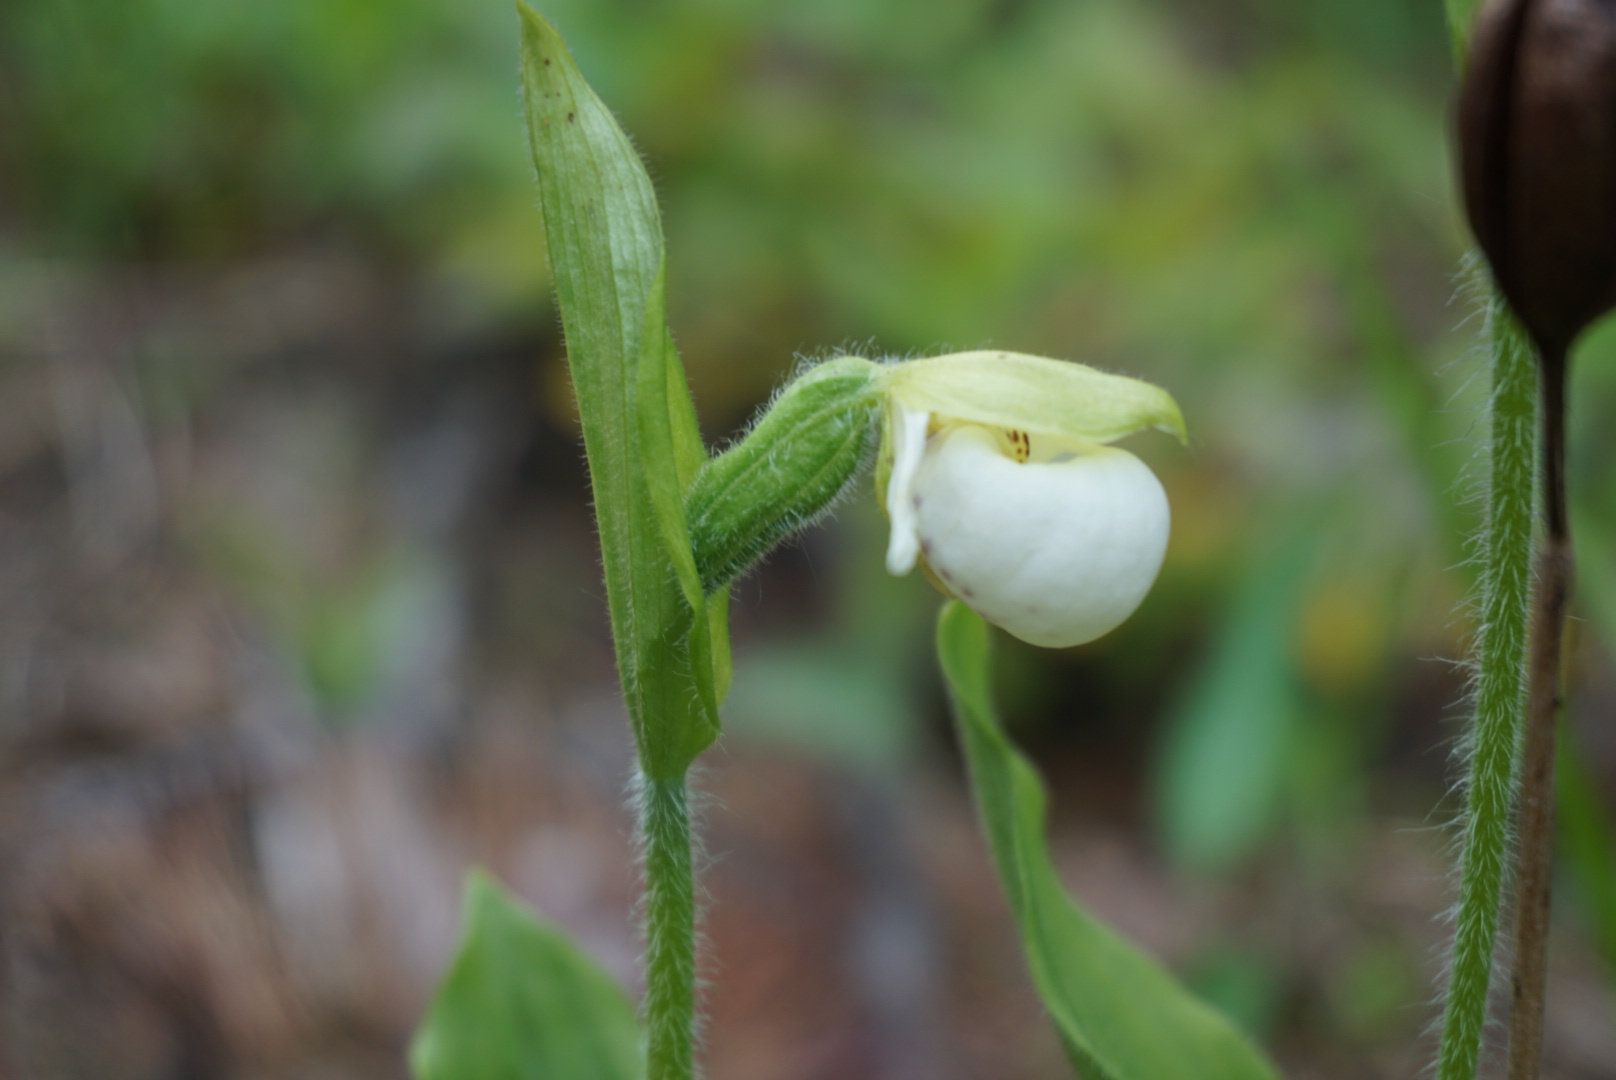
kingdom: Plantae
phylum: Tracheophyta
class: Liliopsida
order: Asparagales
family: Orchidaceae
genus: Cypripedium
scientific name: Cypripedium passerinum
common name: Sparrow's-egg lady's-slipper
